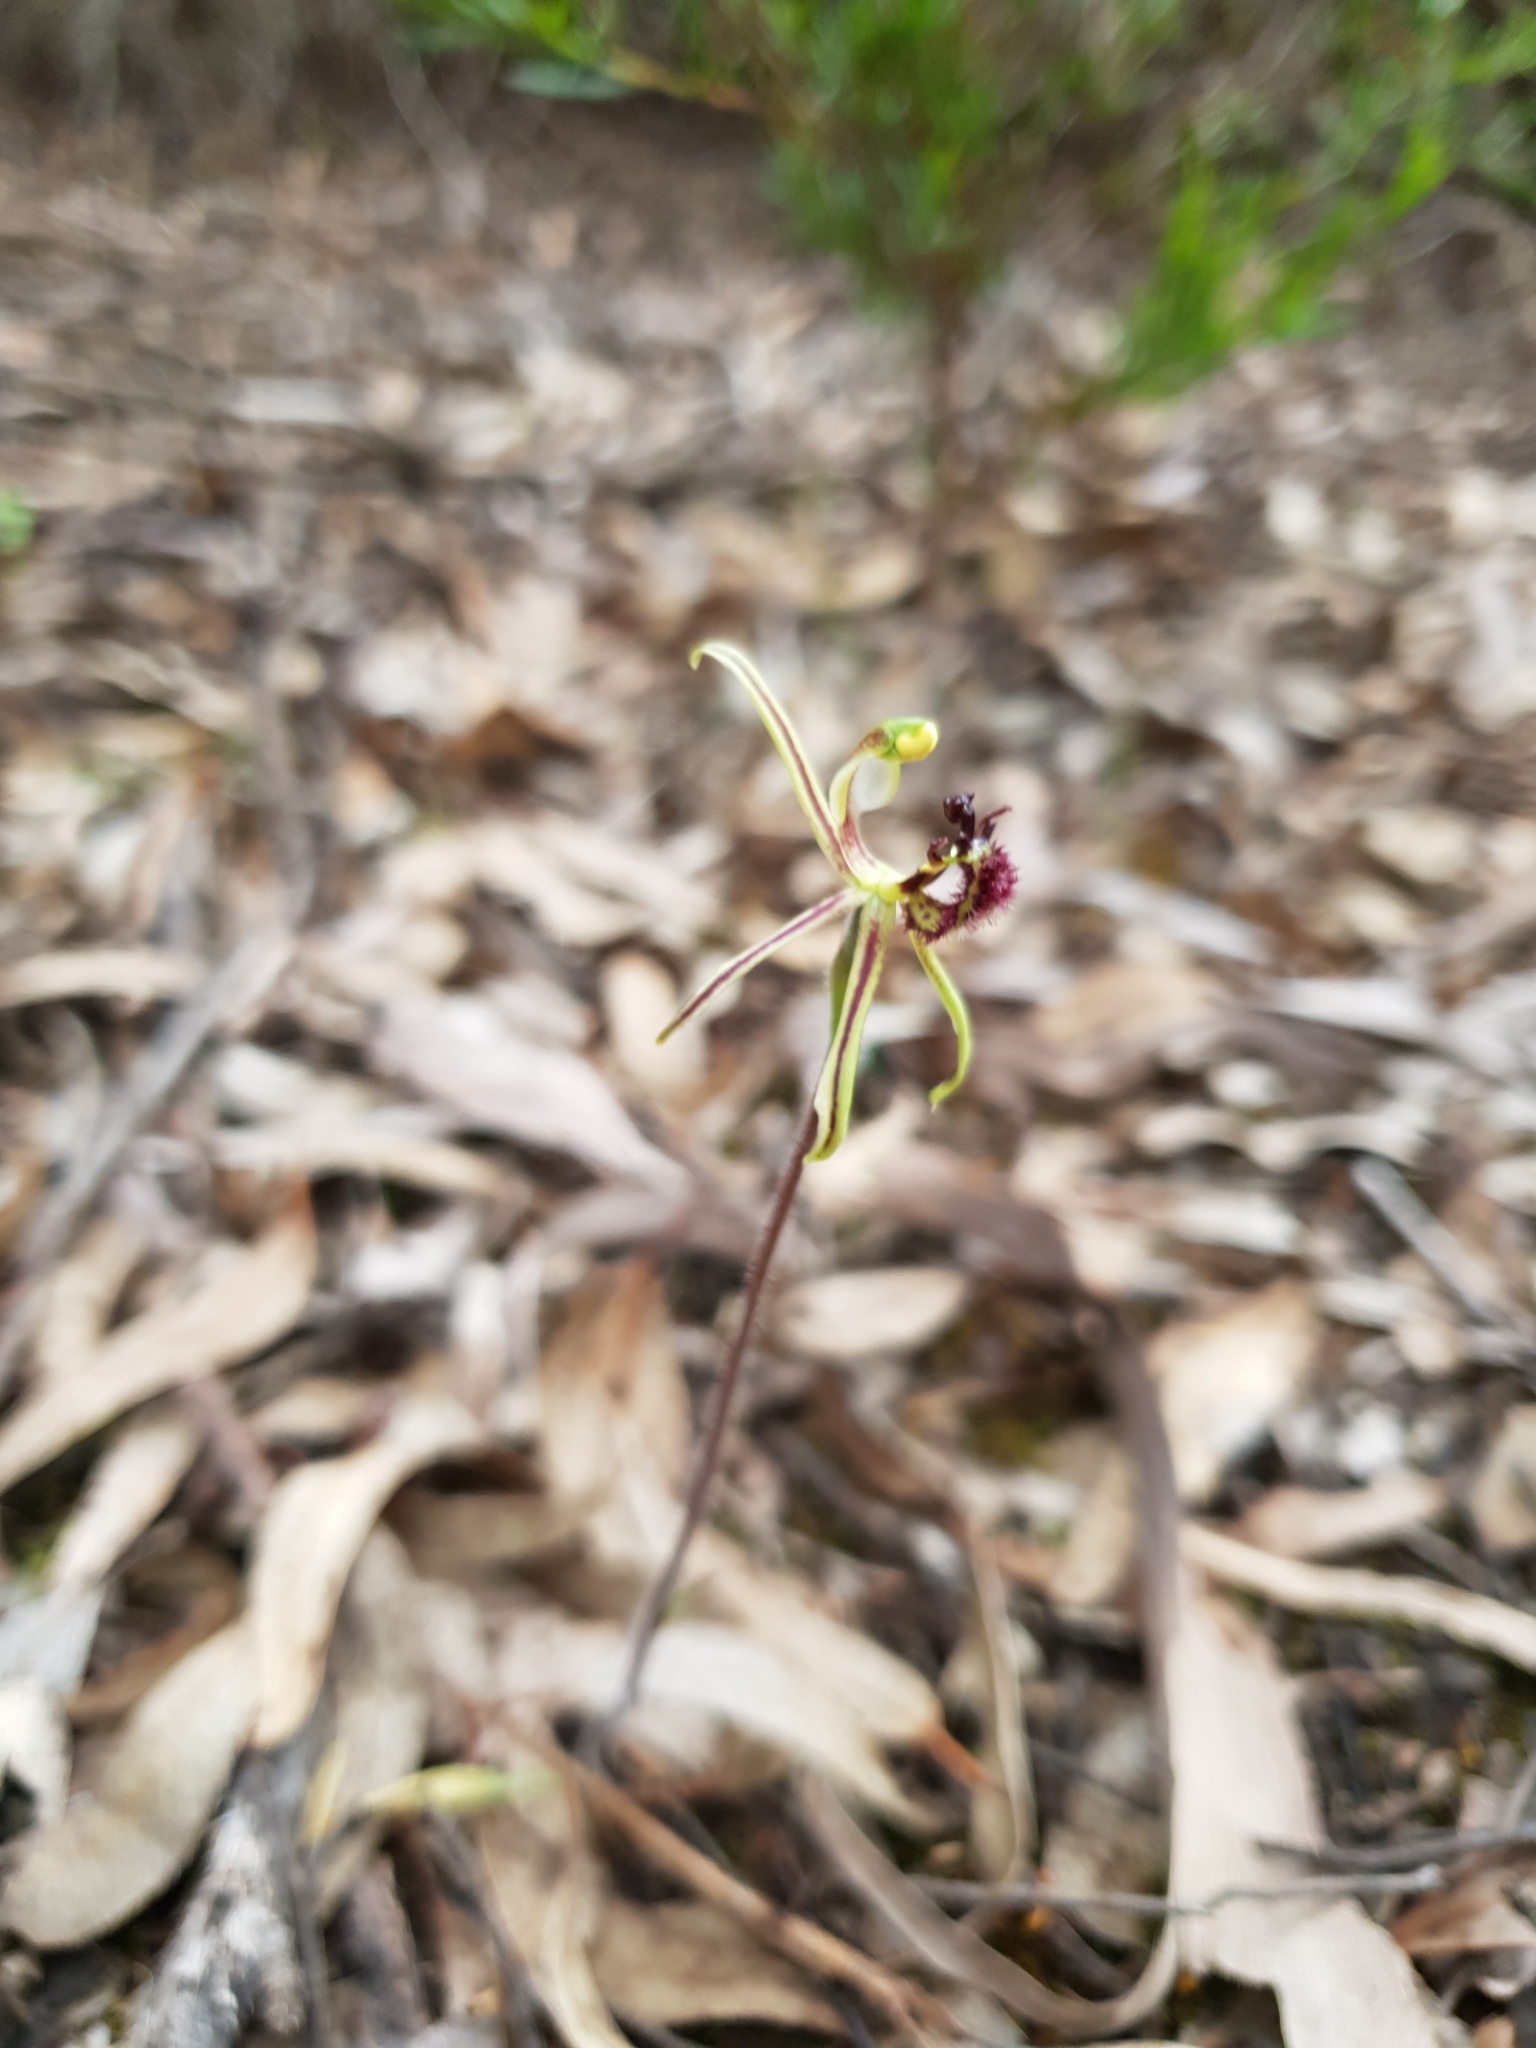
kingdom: Plantae
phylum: Tracheophyta
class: Liliopsida
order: Asparagales
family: Orchidaceae
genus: Caladenia
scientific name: Caladenia barbarossa
